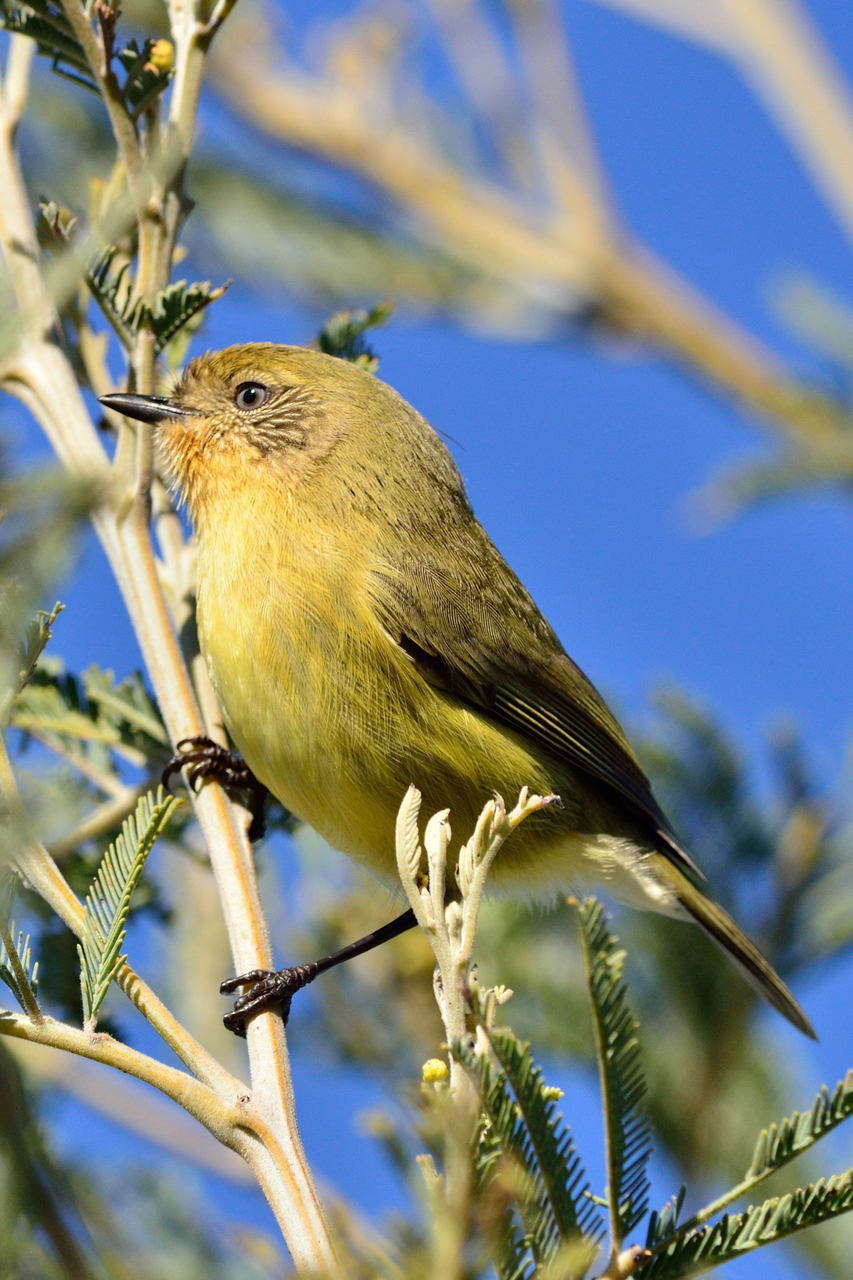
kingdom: Animalia
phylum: Chordata
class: Aves
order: Passeriformes
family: Acanthizidae
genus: Acanthiza
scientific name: Acanthiza nana
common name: Yellow thornbill
